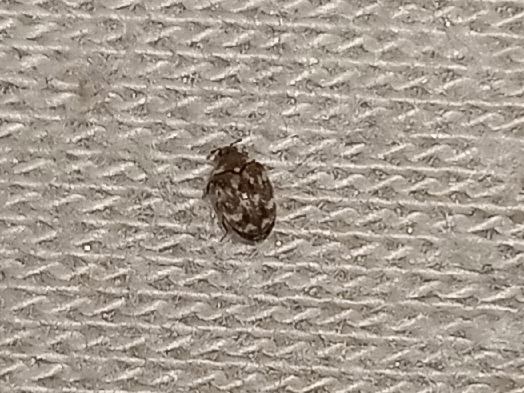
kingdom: Animalia
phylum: Arthropoda
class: Insecta
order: Coleoptera
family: Dermestidae
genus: Anthrenus
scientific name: Anthrenus verbasci
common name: Varied carpet beetle
